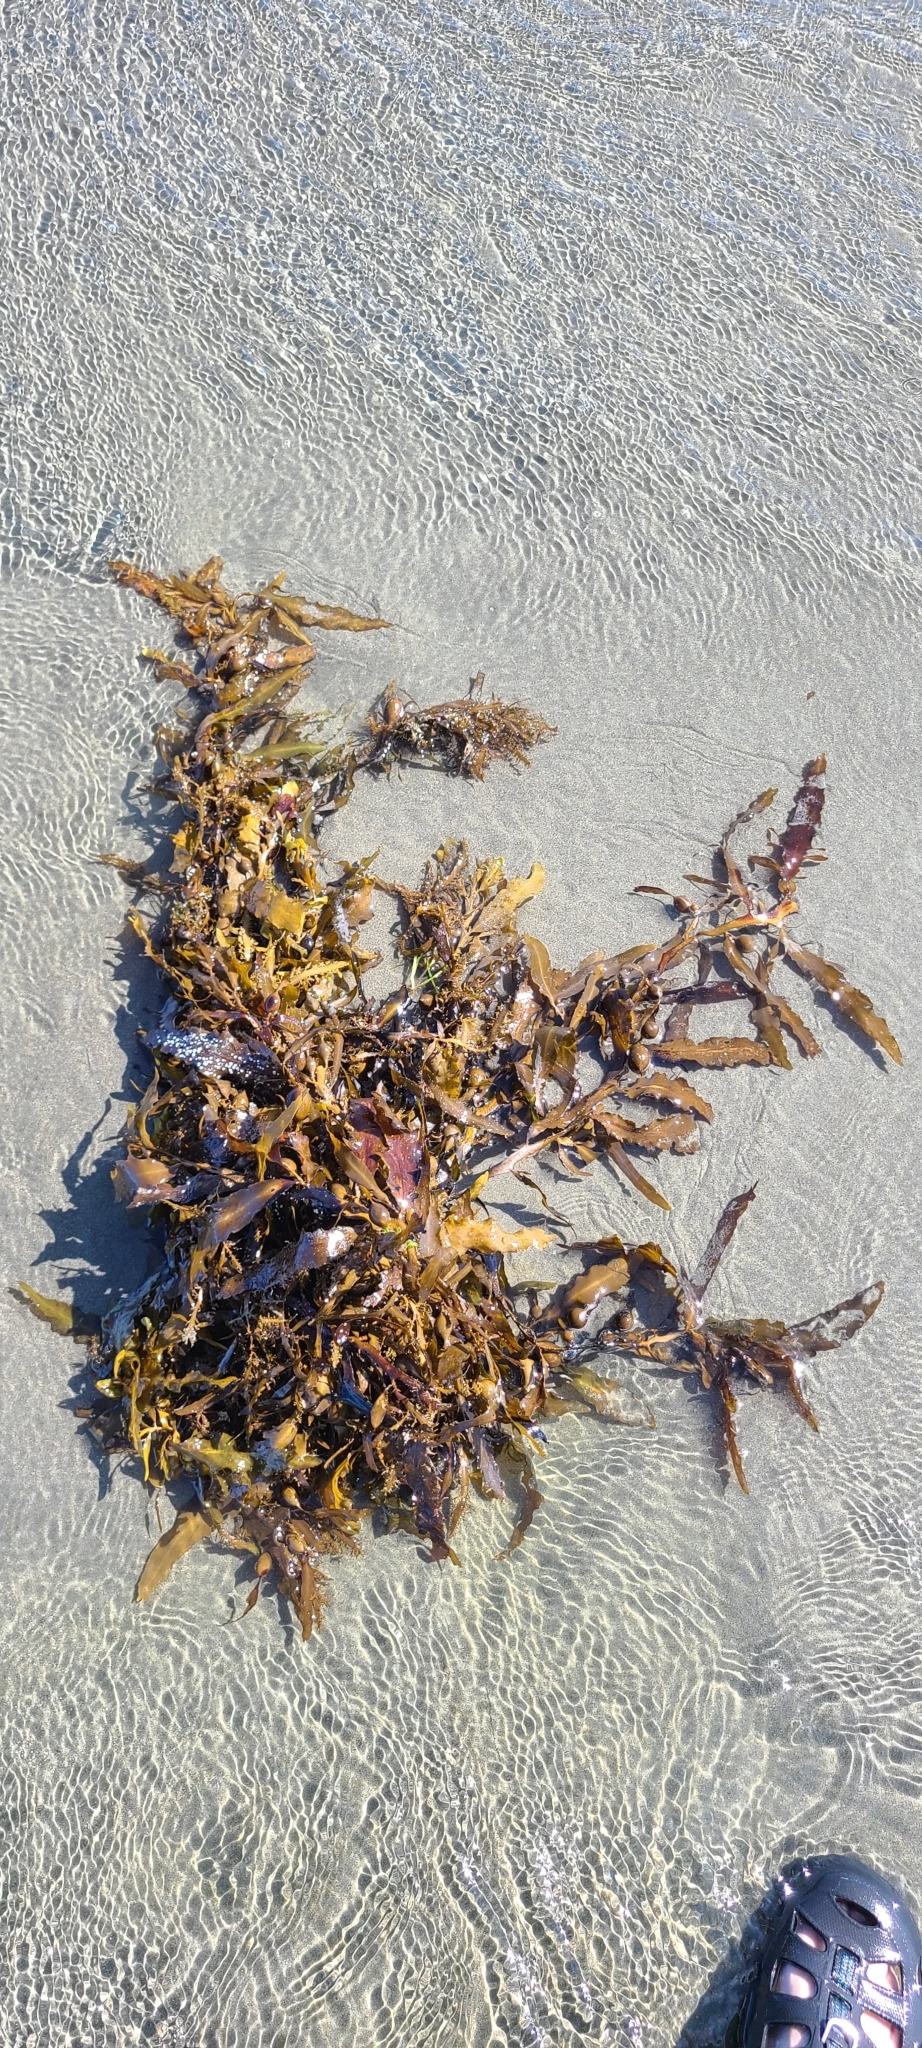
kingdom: Chromista
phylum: Ochrophyta
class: Phaeophyceae
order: Fucales
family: Sargassaceae
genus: Carpophyllum
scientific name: Carpophyllum flexuosum
